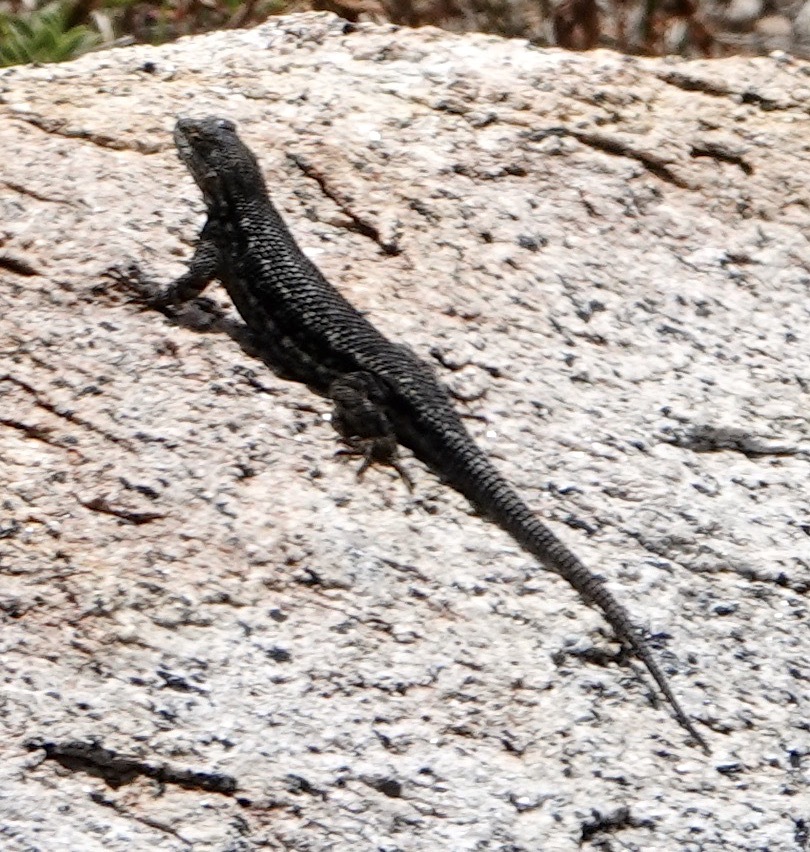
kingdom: Animalia
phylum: Chordata
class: Squamata
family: Phrynosomatidae
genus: Sceloporus
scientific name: Sceloporus occidentalis
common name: Western fence lizard
